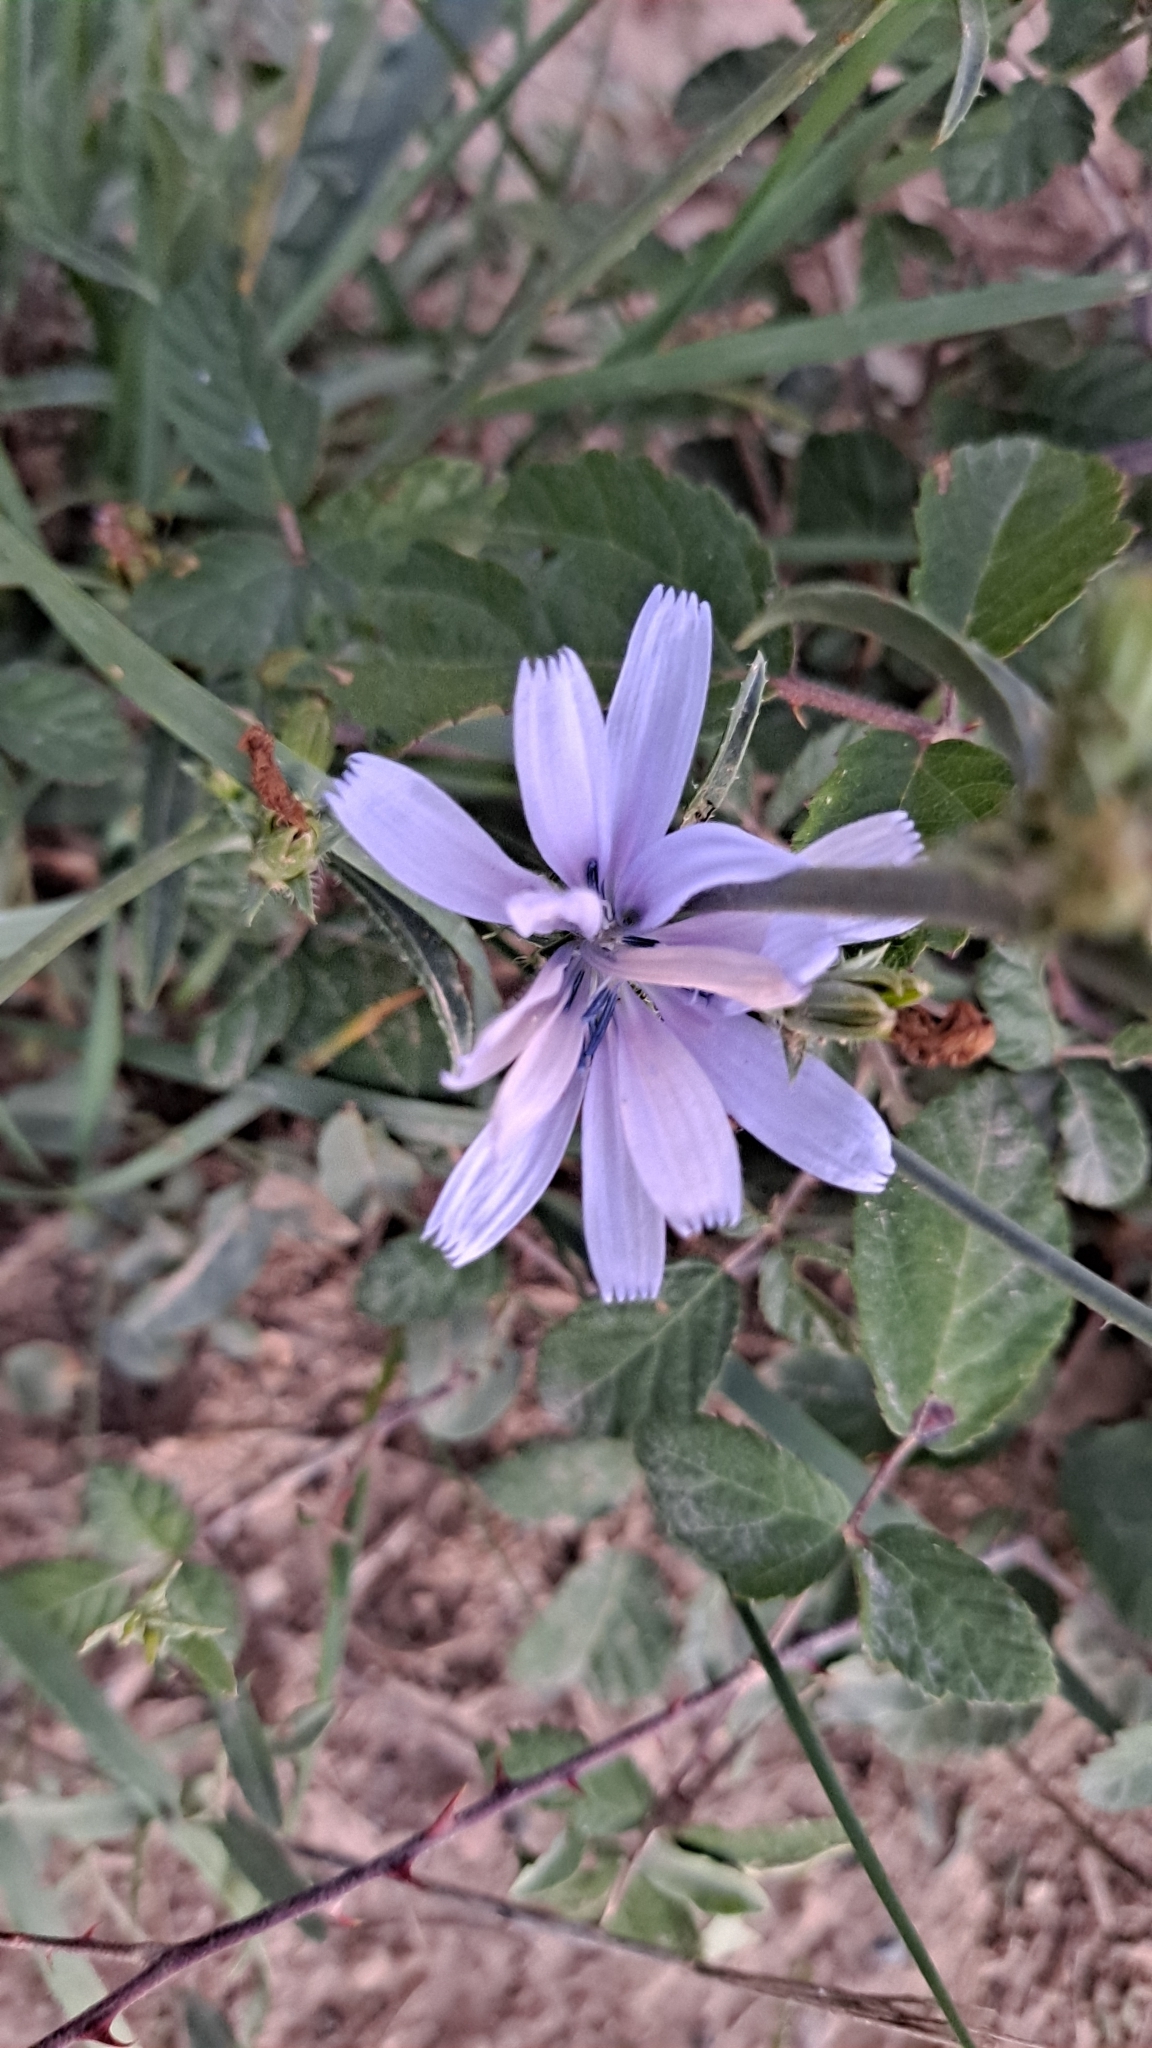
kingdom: Plantae
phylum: Tracheophyta
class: Magnoliopsida
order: Asterales
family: Asteraceae
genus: Cichorium
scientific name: Cichorium intybus
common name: Chicory
